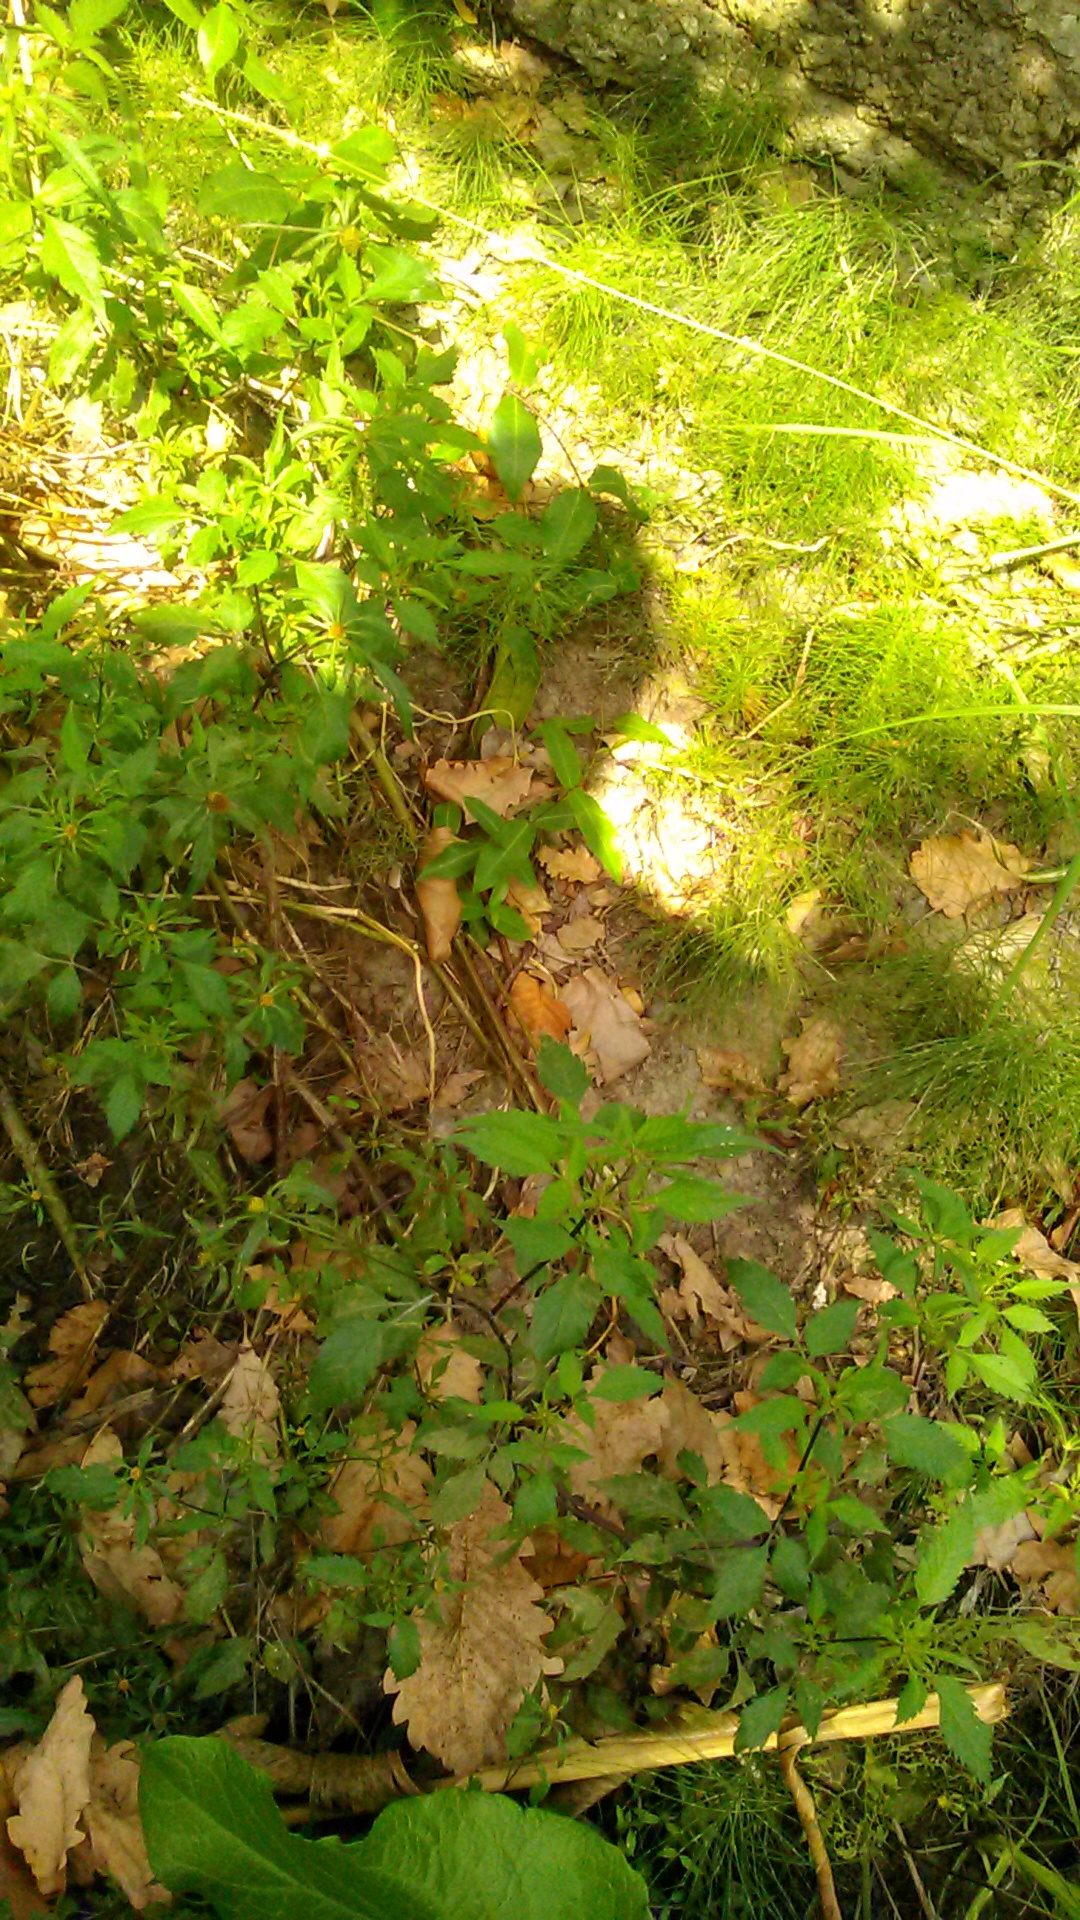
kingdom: Plantae
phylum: Tracheophyta
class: Magnoliopsida
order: Asterales
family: Asteraceae
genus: Bidens
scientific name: Bidens frondosa
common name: Beggarticks
